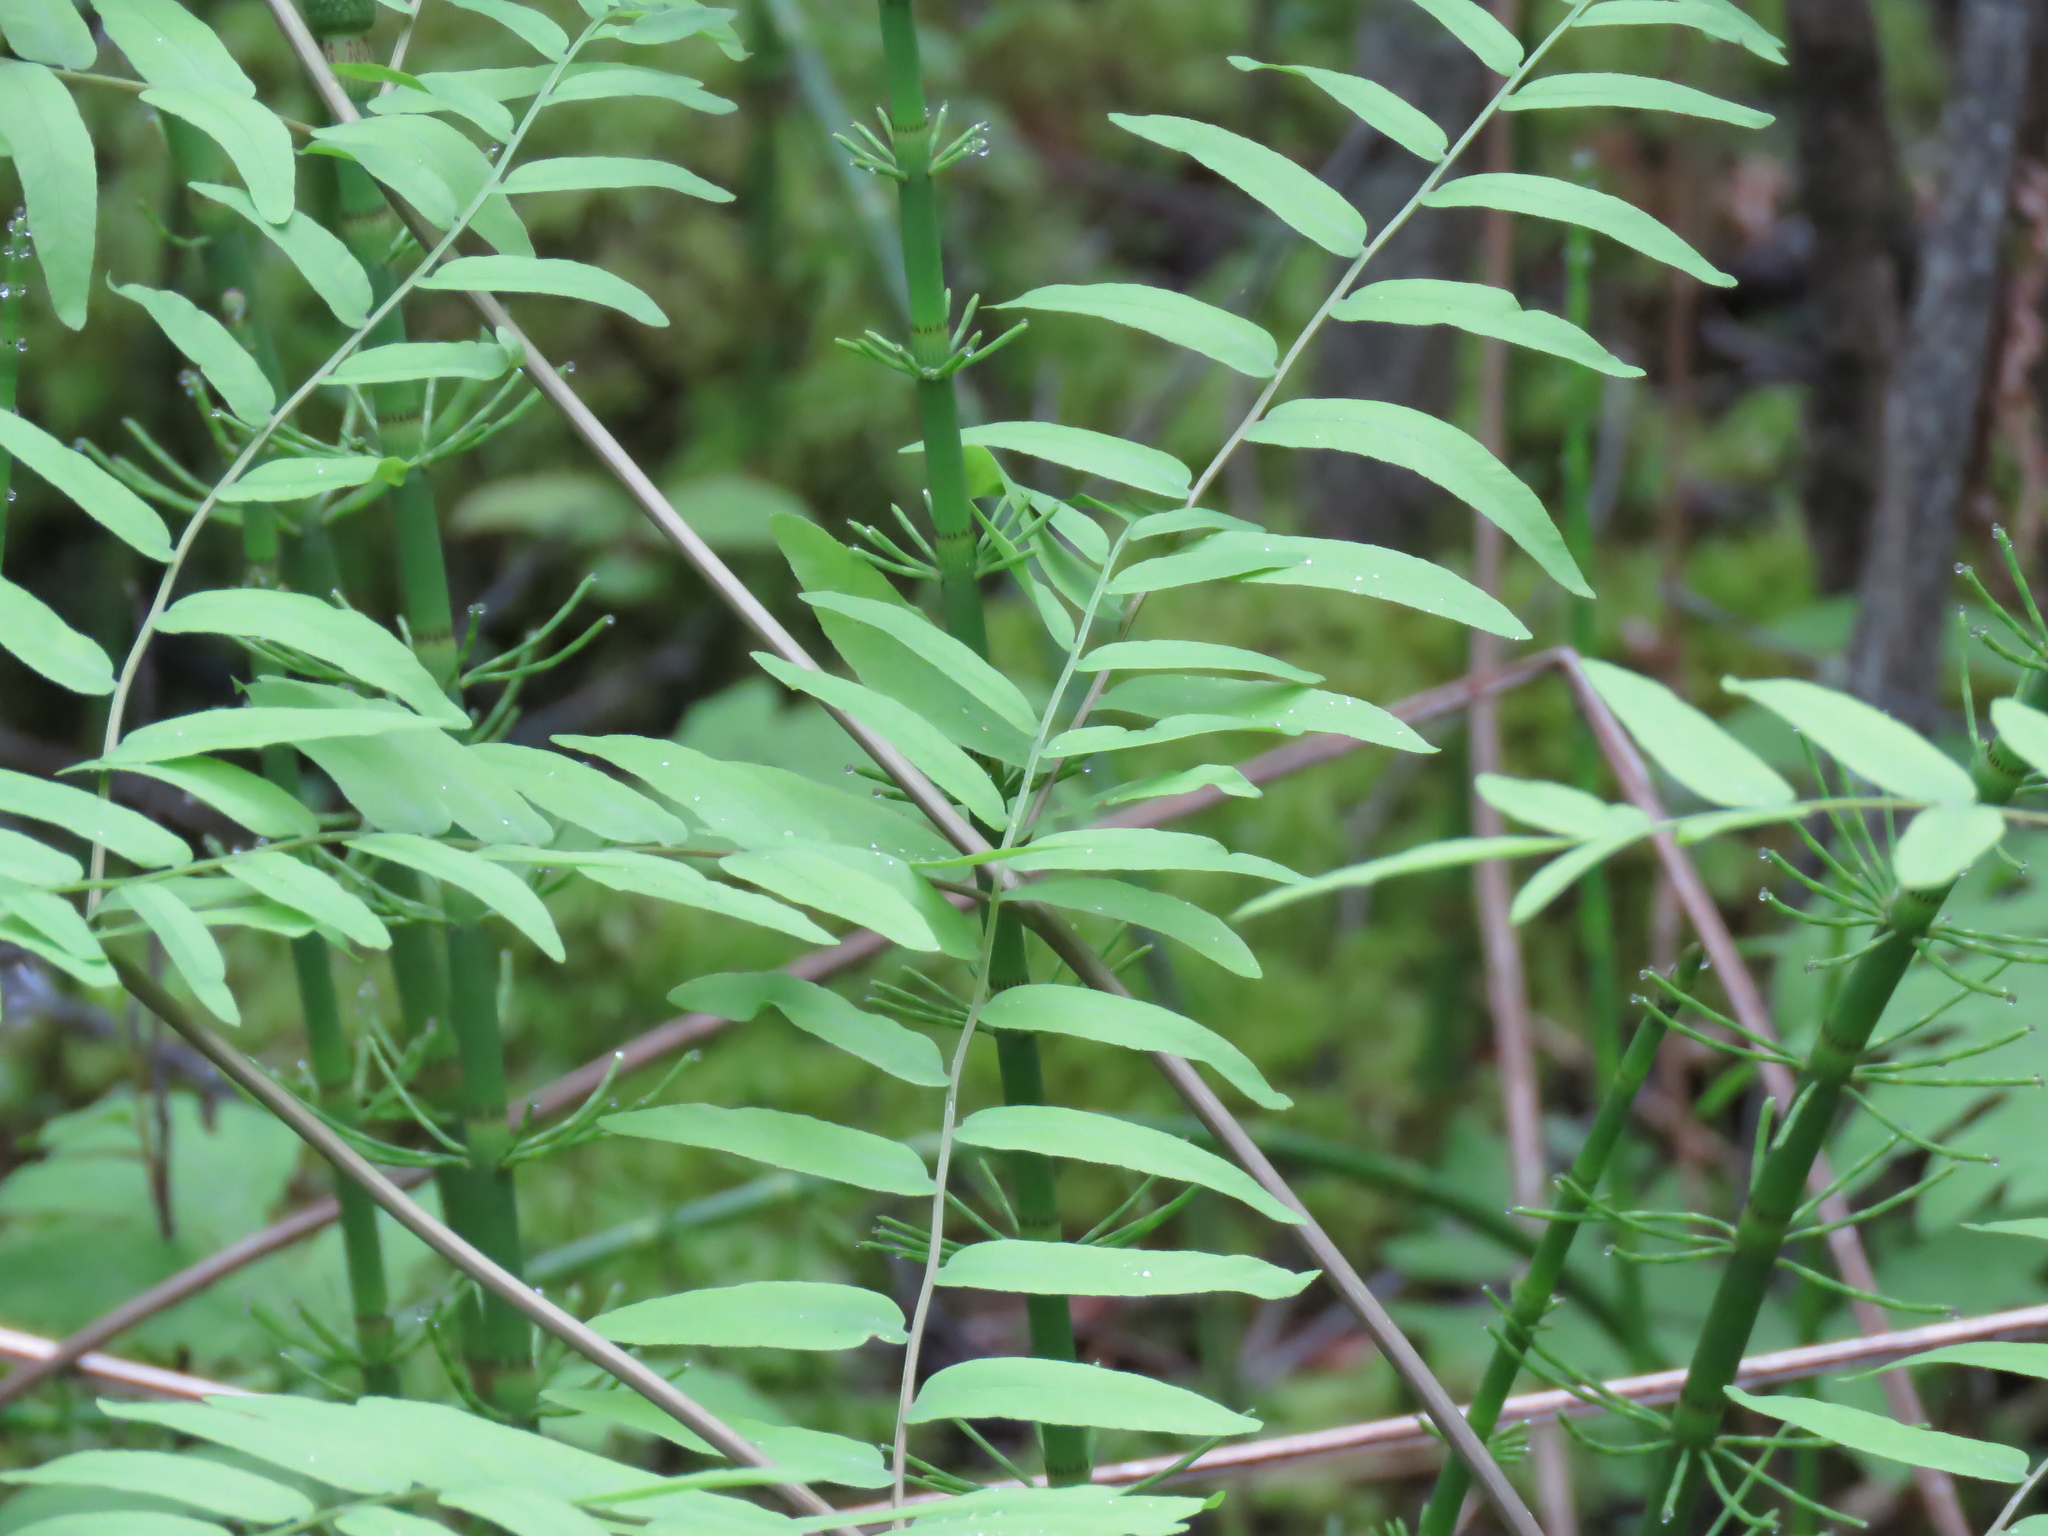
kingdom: Plantae
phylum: Tracheophyta
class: Polypodiopsida
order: Osmundales
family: Osmundaceae
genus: Osmunda
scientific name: Osmunda spectabilis
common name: American royal fern
